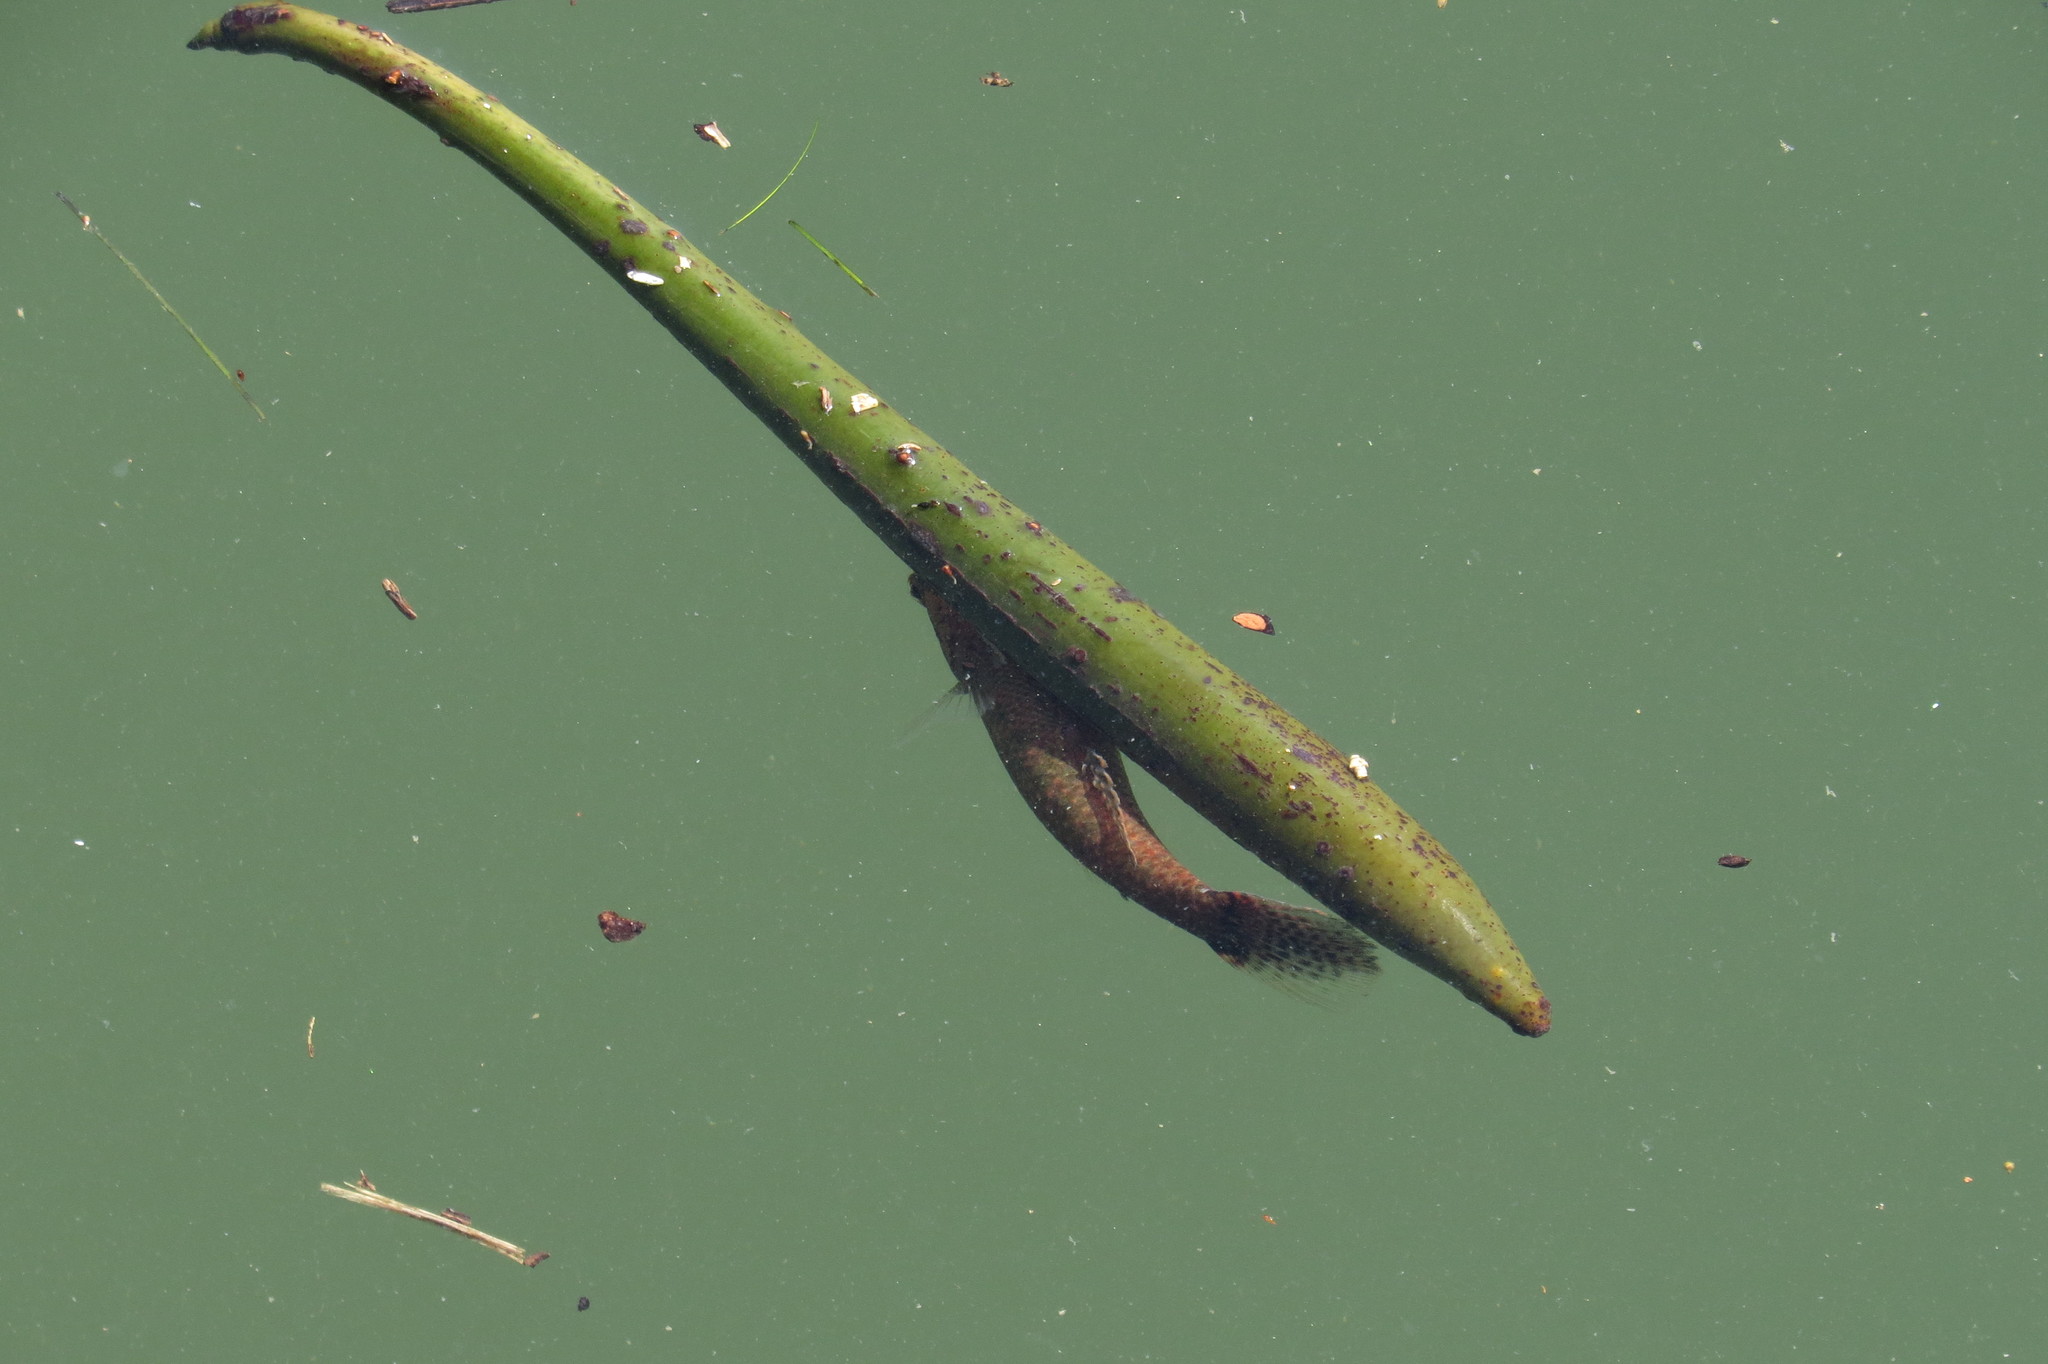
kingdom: Animalia
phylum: Chordata
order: Perciformes
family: Eleotridae
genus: Butis
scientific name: Butis butis
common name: Duckbill sleeper
